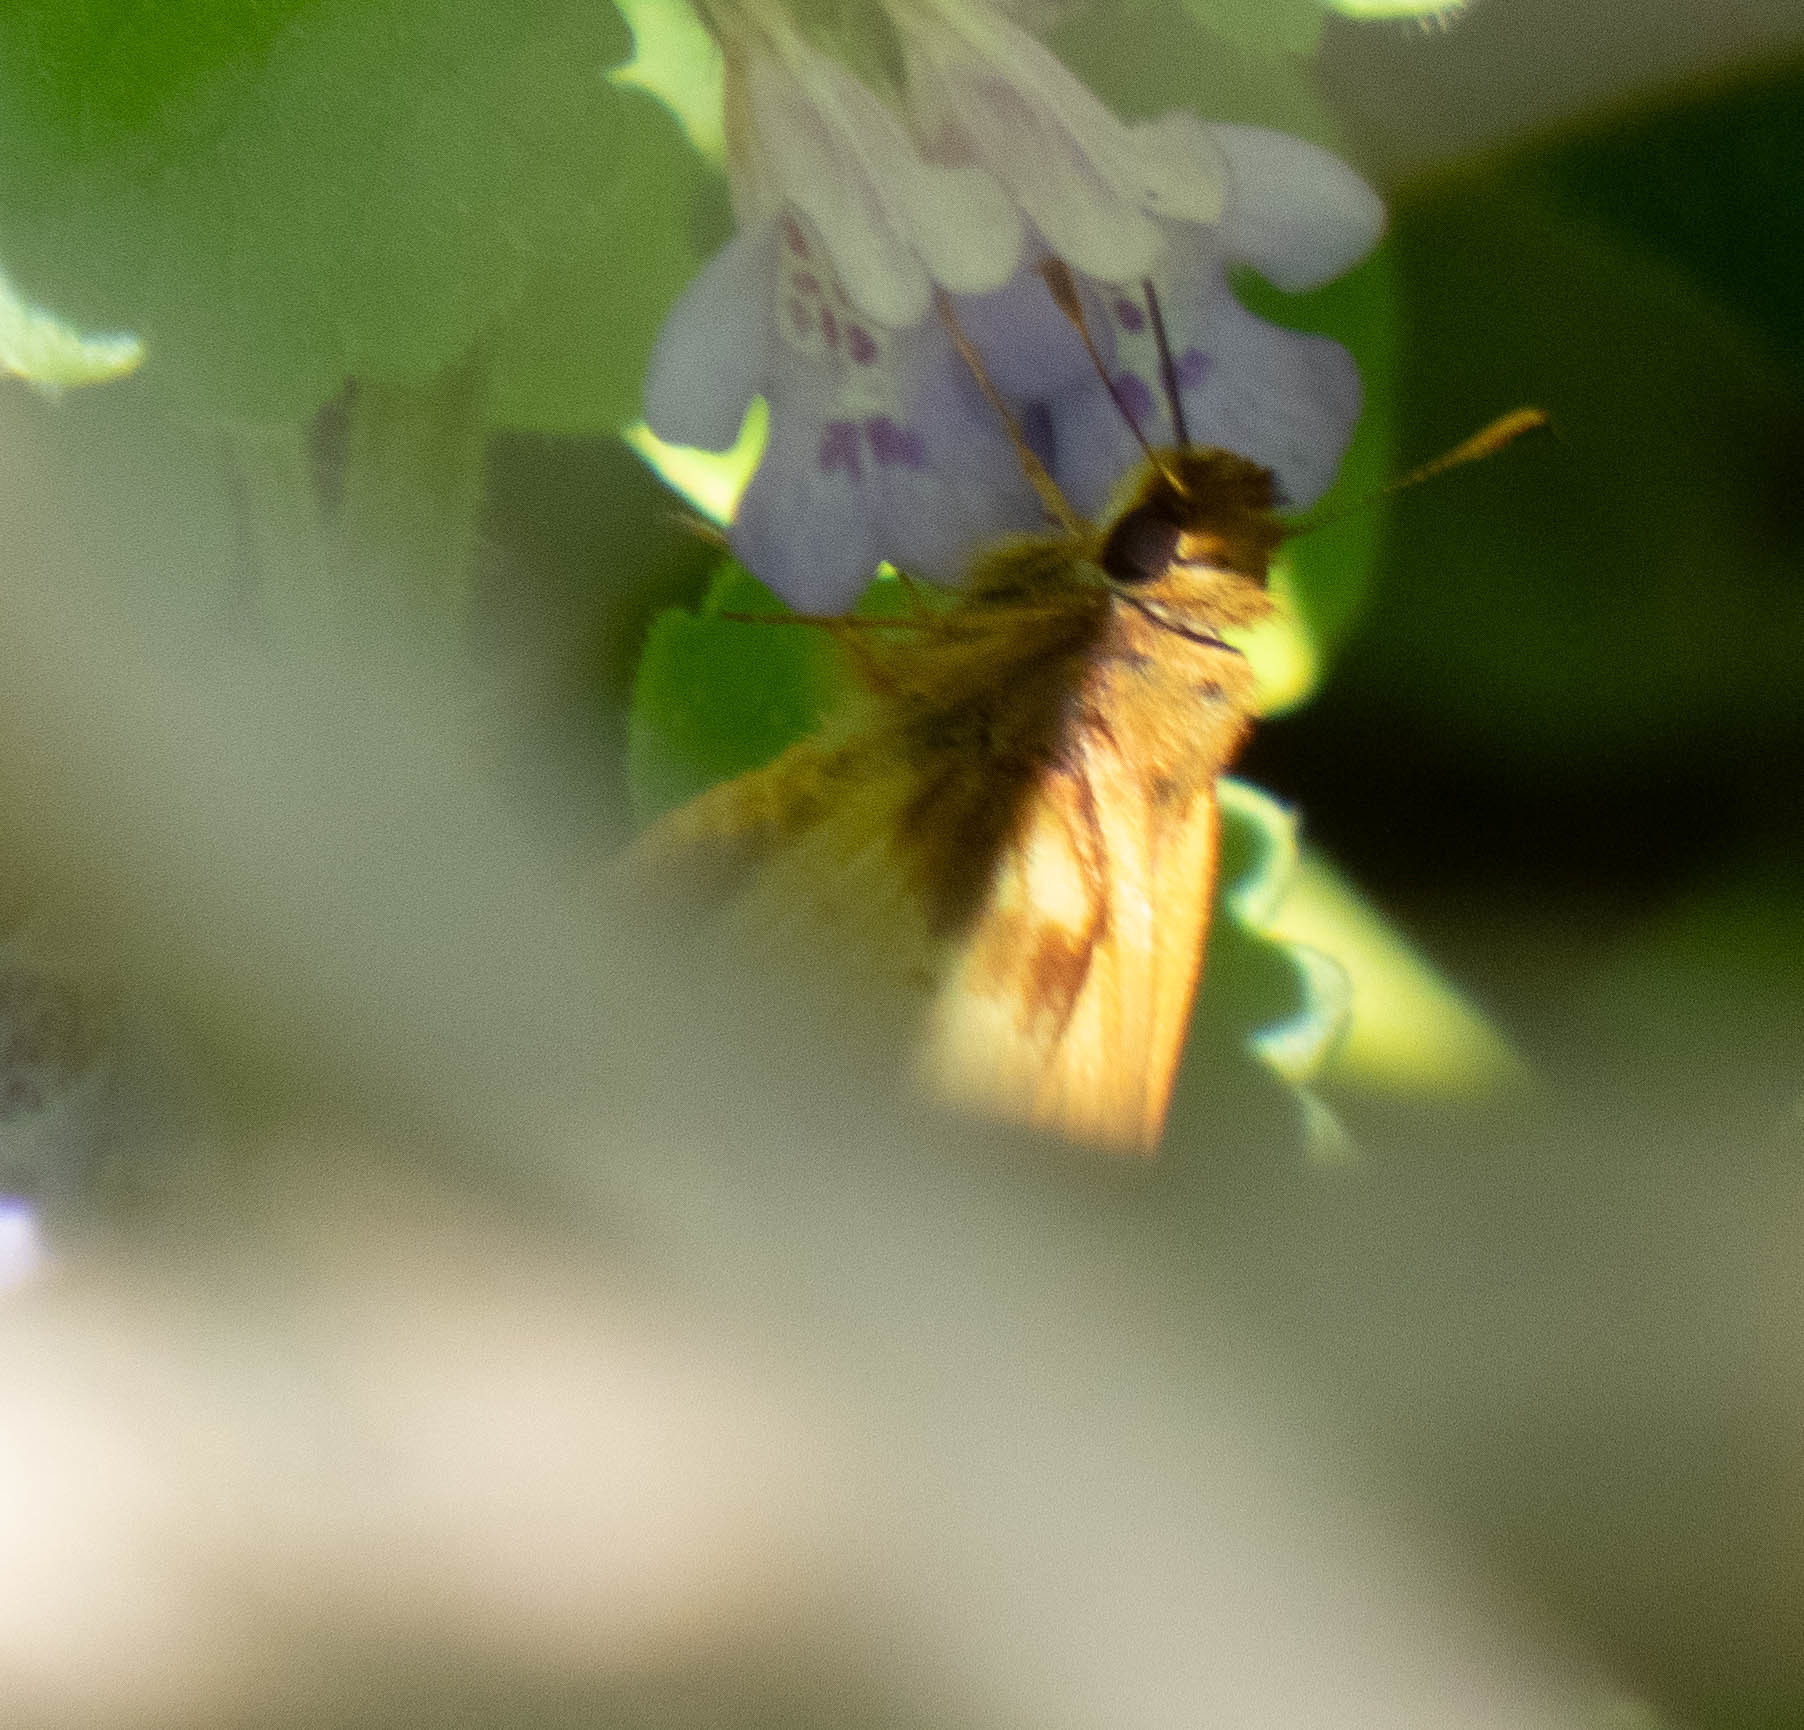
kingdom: Animalia
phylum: Arthropoda
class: Insecta
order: Lepidoptera
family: Hesperiidae
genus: Lon
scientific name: Lon zabulon
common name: Zabulon skipper
